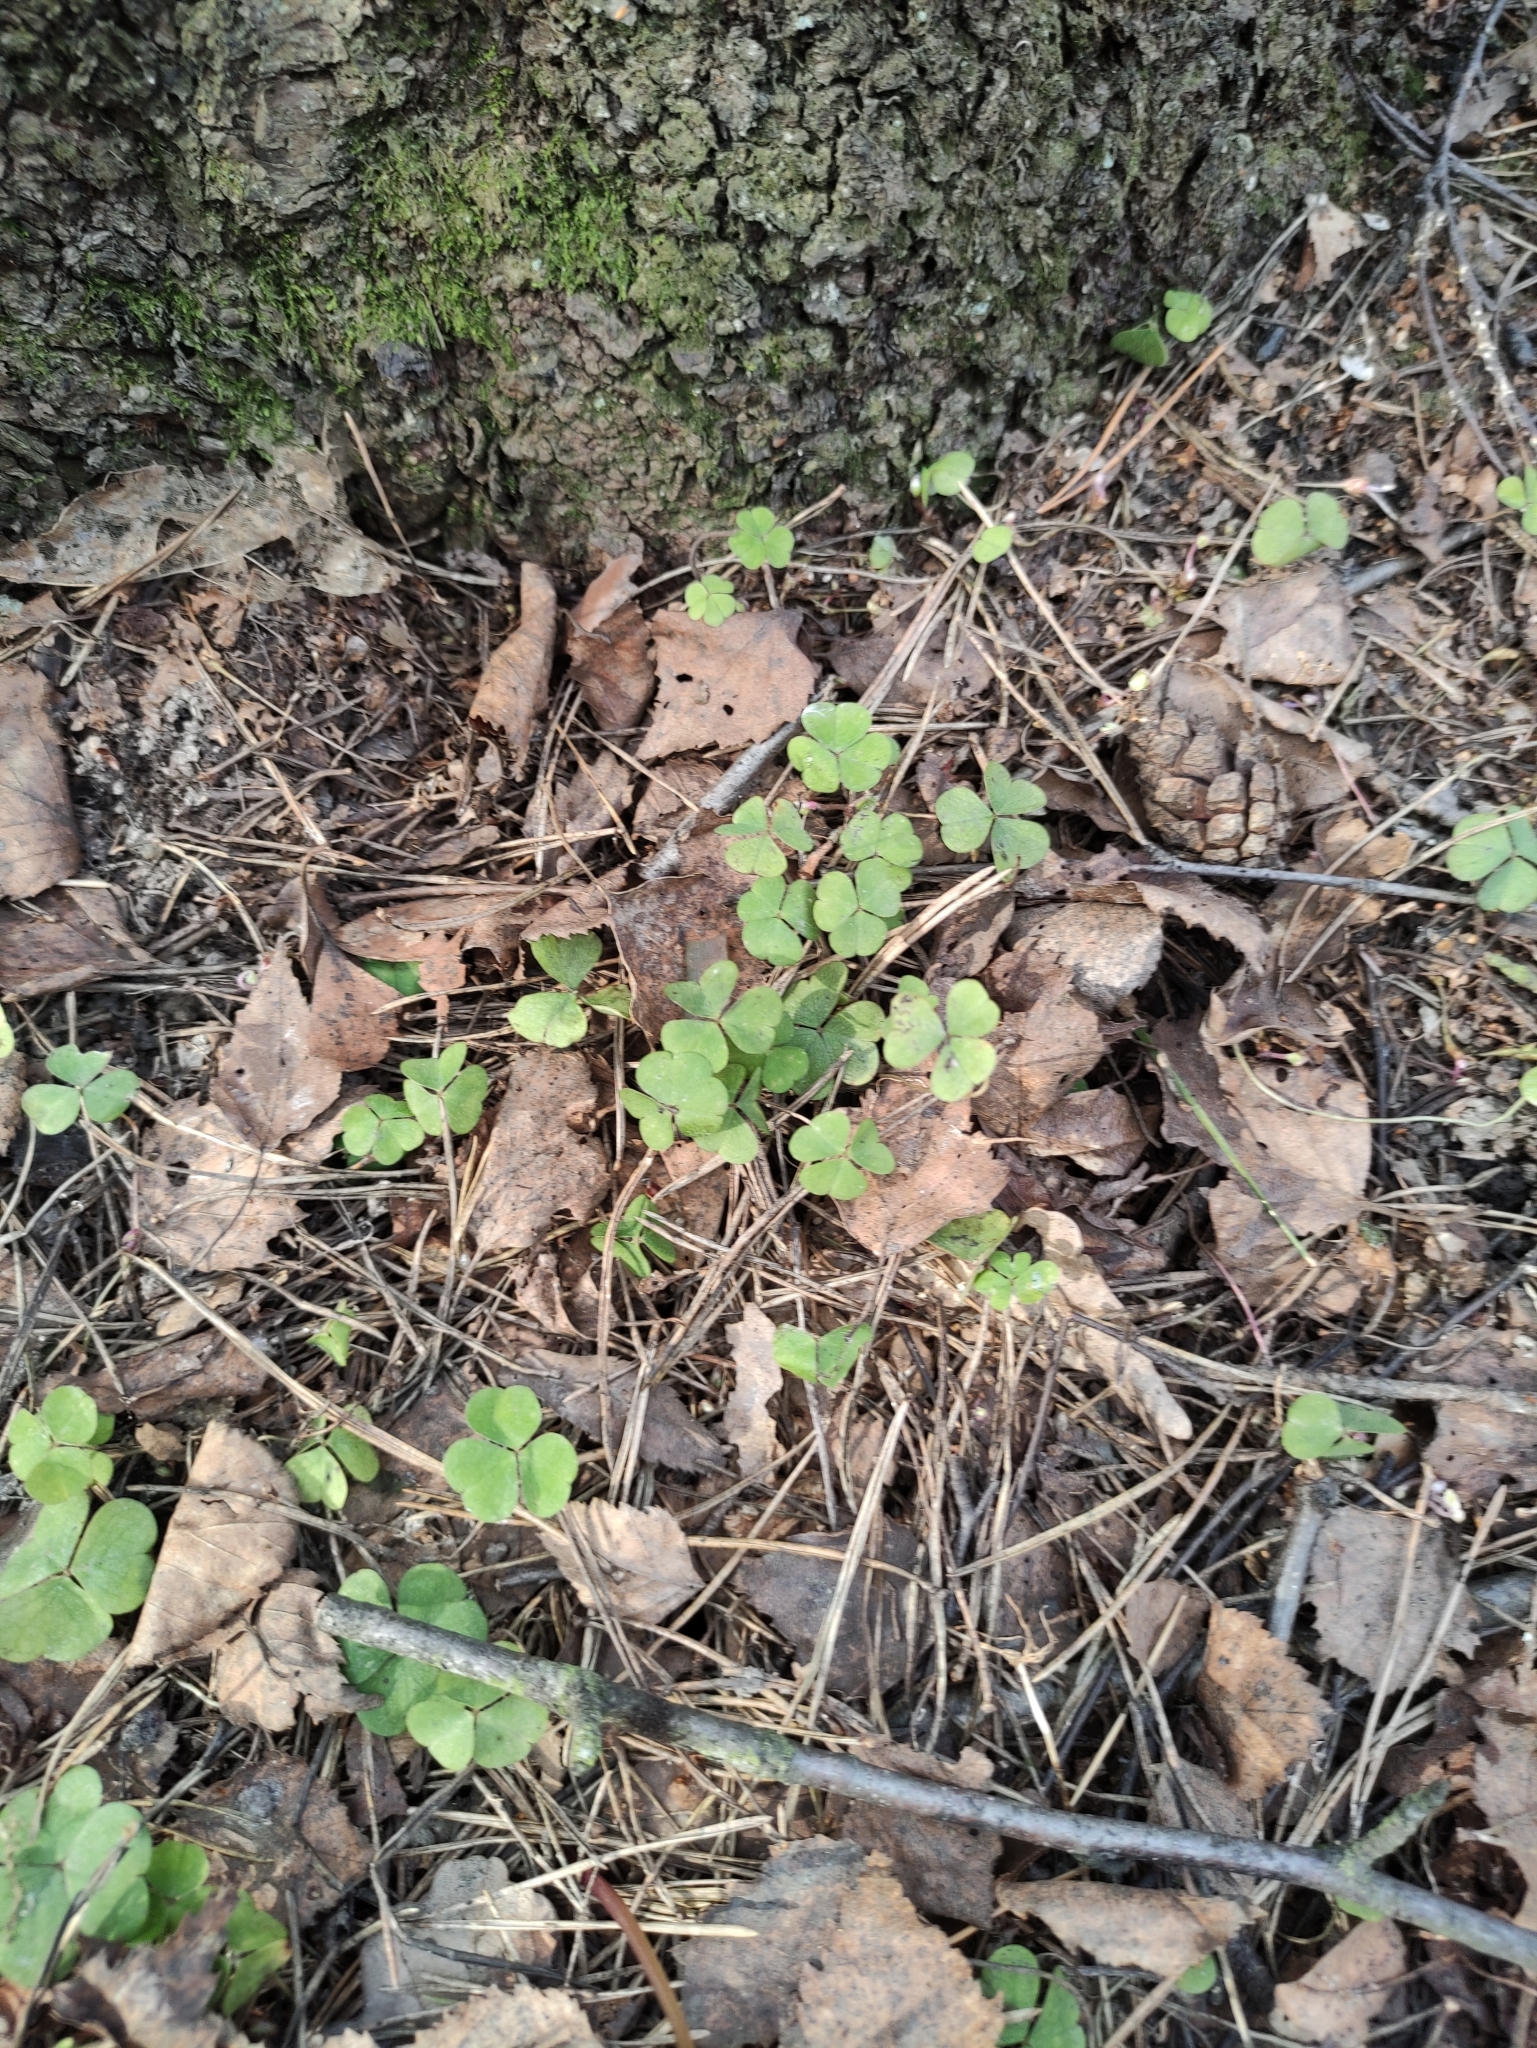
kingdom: Plantae
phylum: Tracheophyta
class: Magnoliopsida
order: Oxalidales
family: Oxalidaceae
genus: Oxalis
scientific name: Oxalis acetosella
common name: Wood-sorrel
